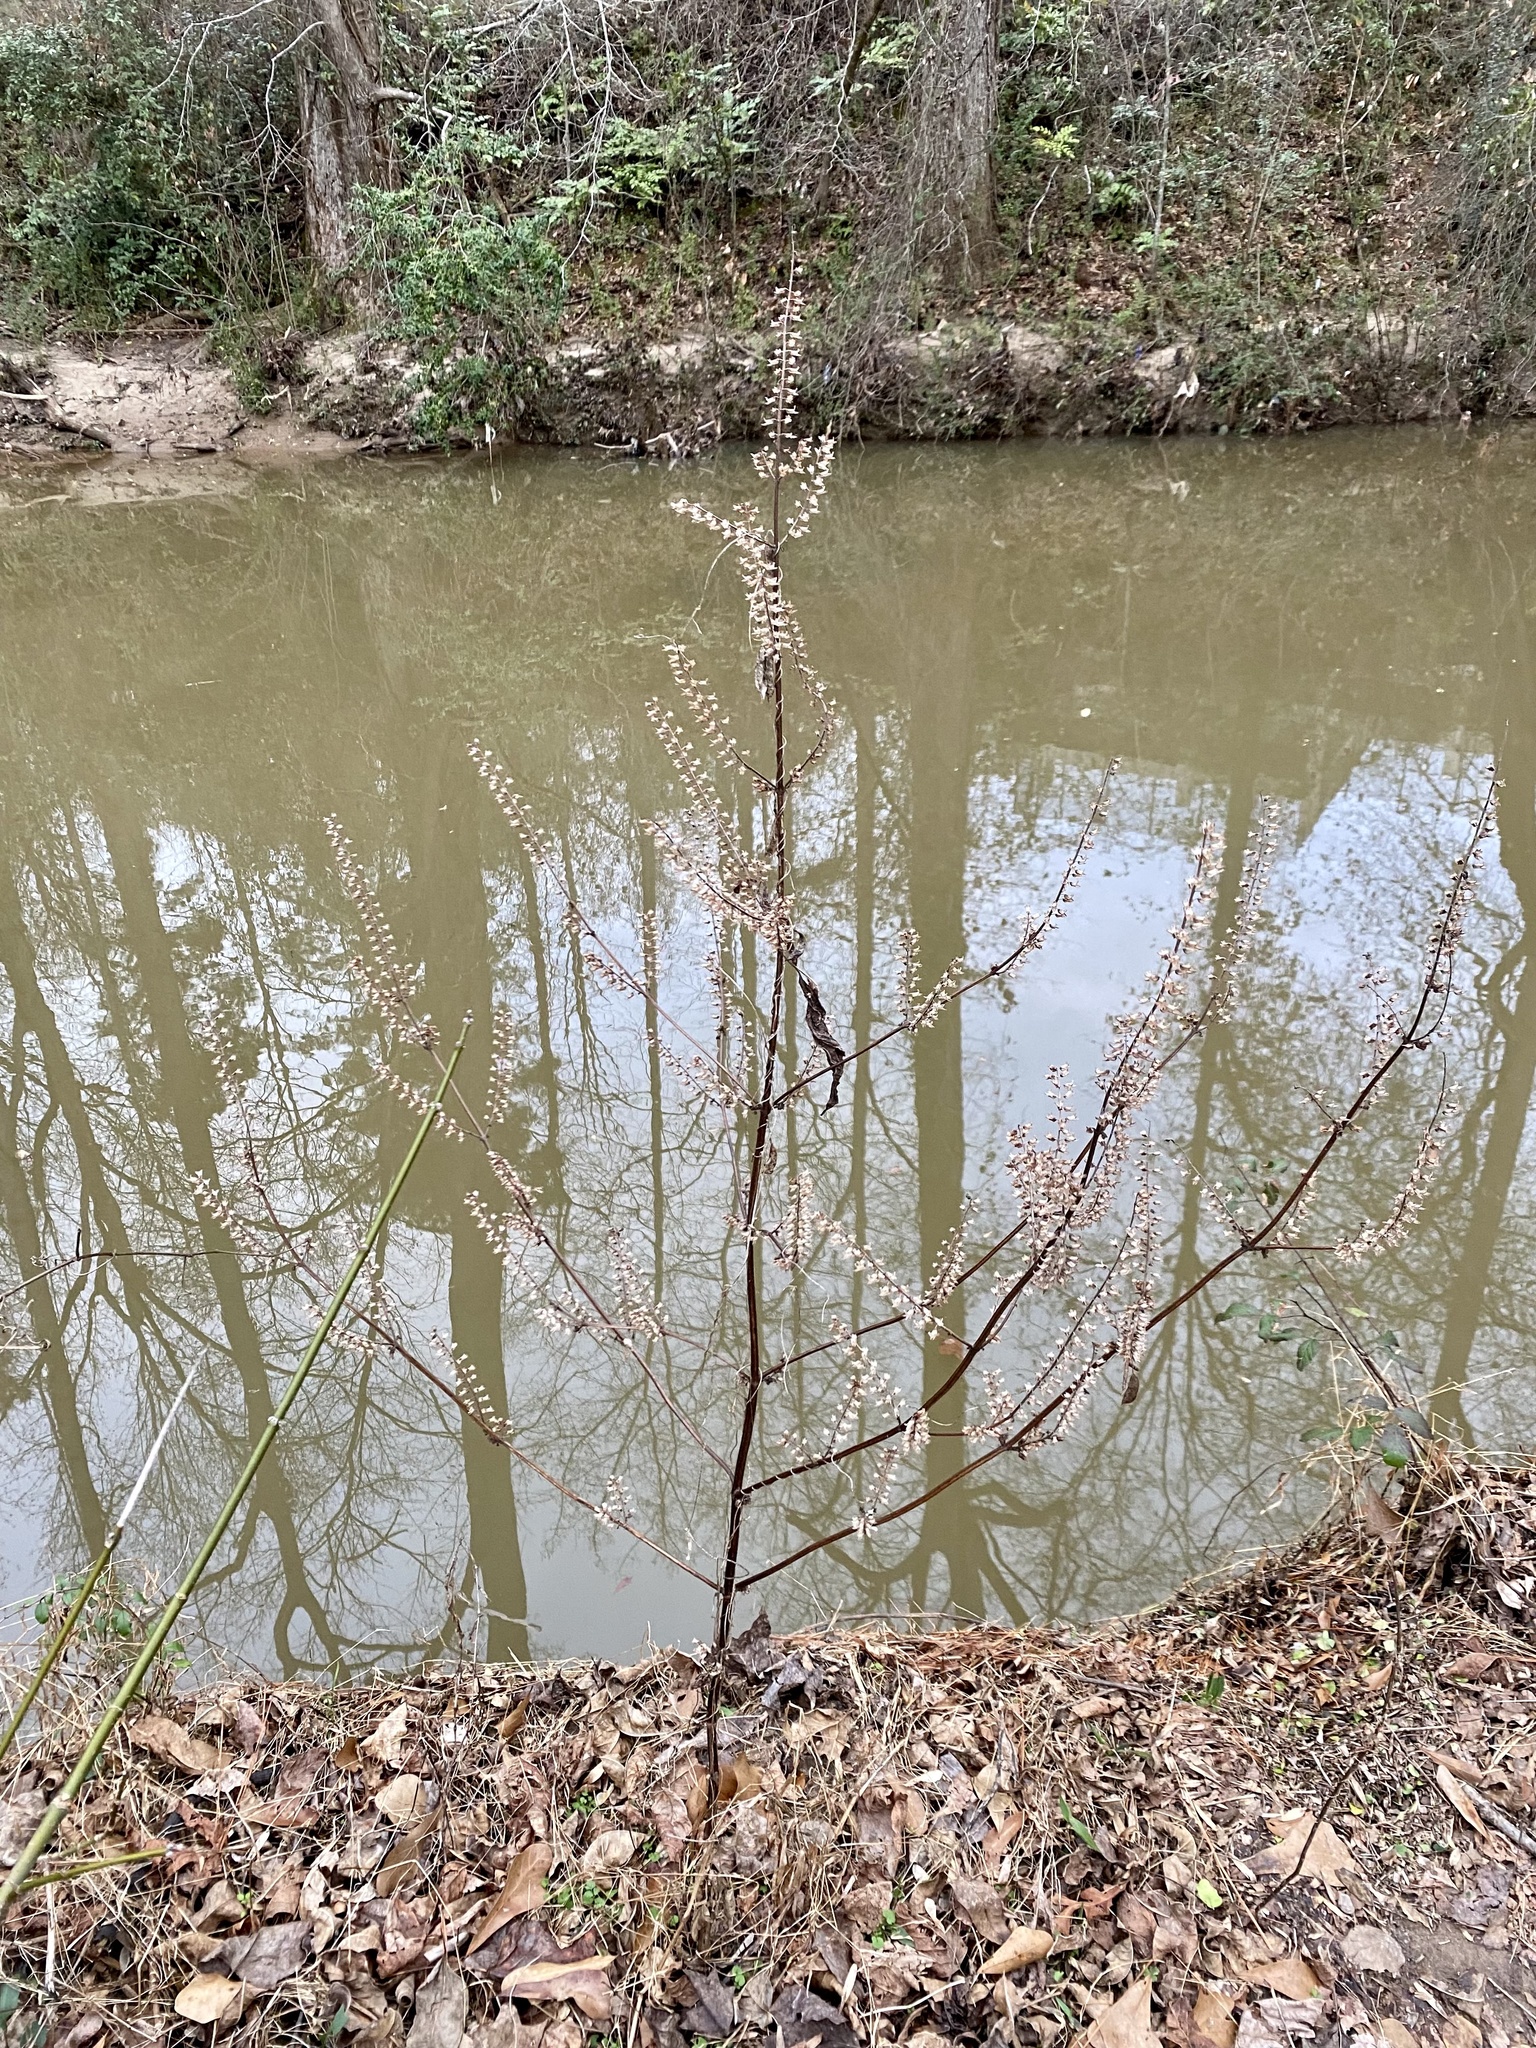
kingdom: Plantae
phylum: Tracheophyta
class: Magnoliopsida
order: Lamiales
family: Lamiaceae
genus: Perilla
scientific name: Perilla frutescens
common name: Perilla
